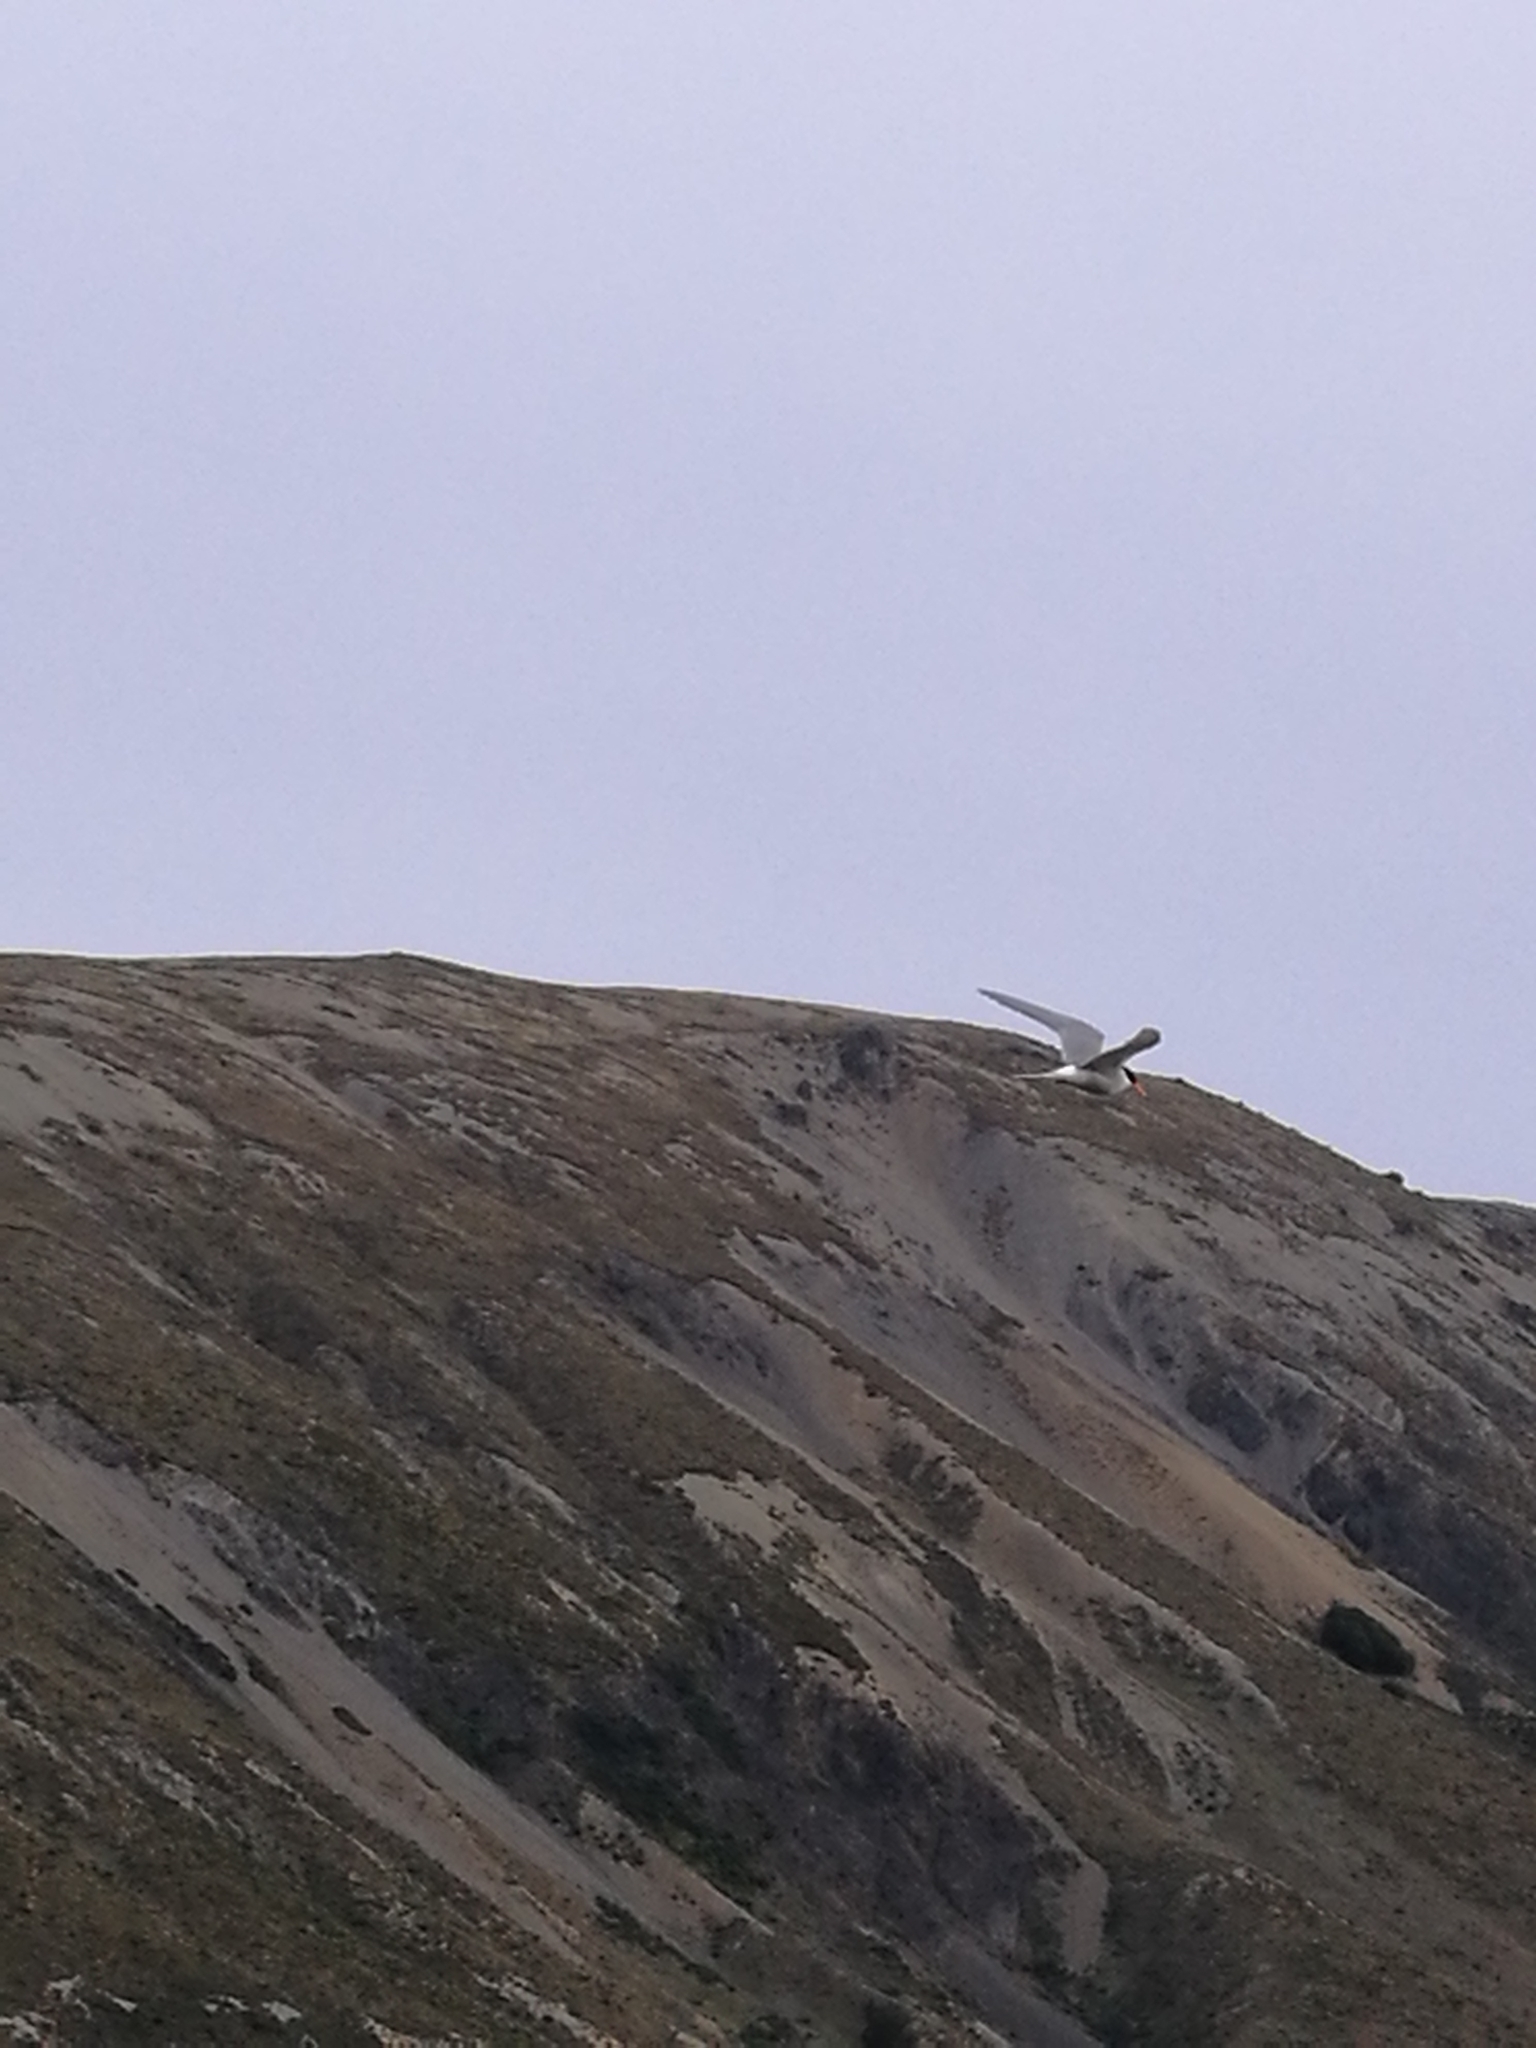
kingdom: Animalia
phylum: Chordata
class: Aves
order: Charadriiformes
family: Laridae
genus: Chlidonias
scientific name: Chlidonias albostriatus
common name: Black-fronted tern
